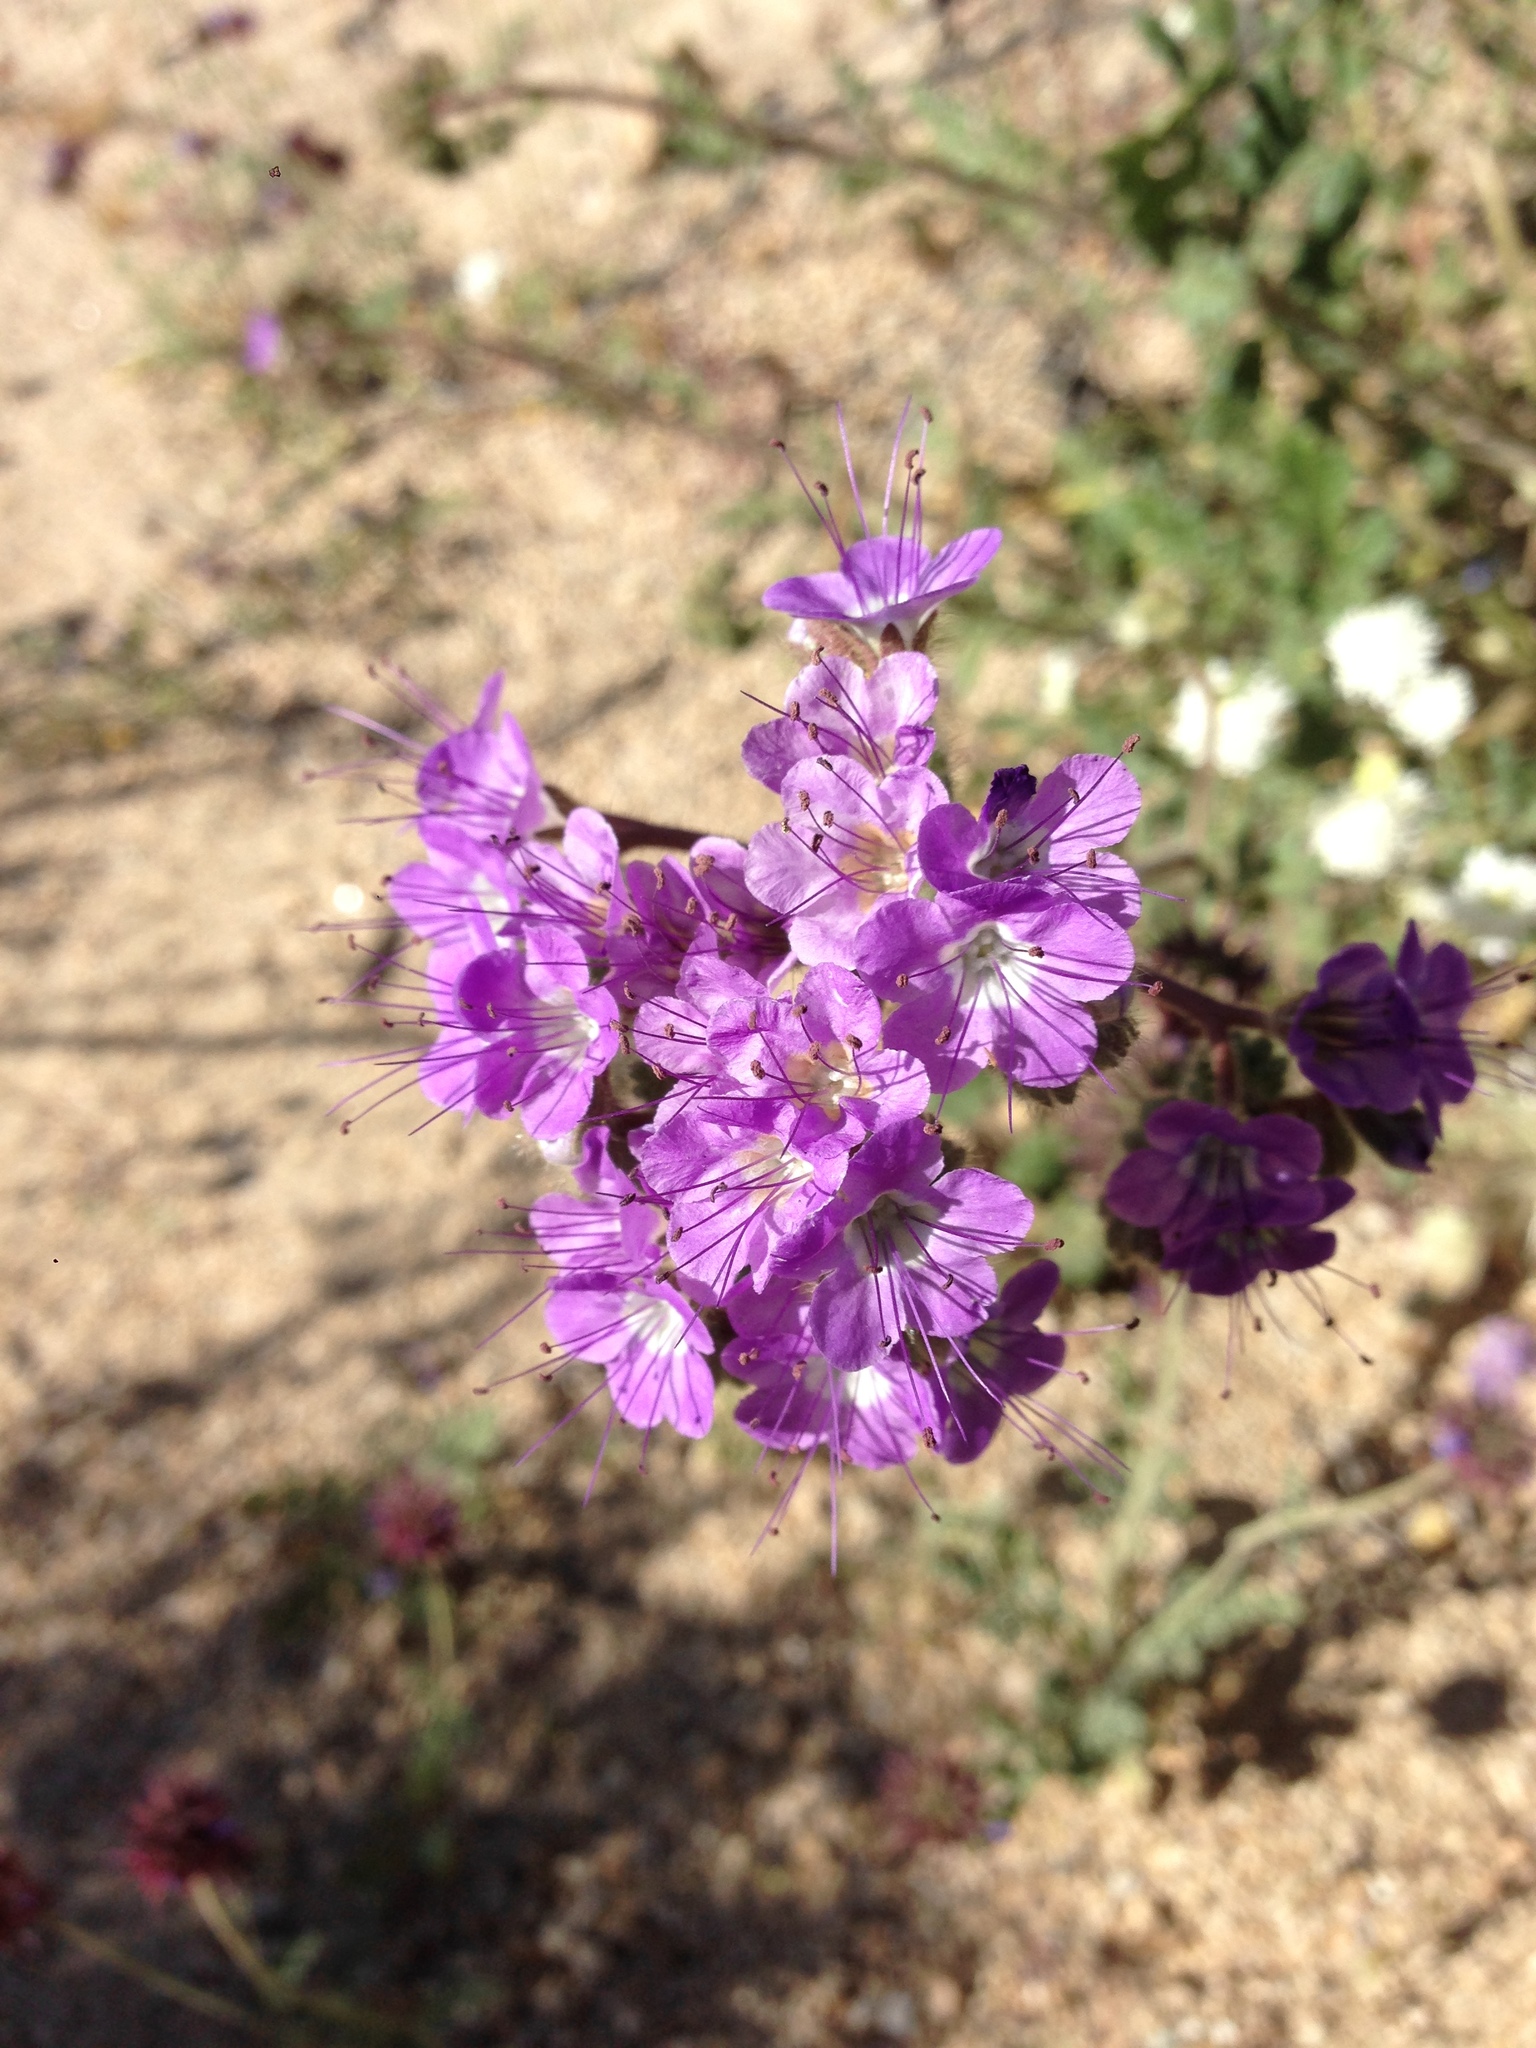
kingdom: Plantae
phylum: Tracheophyta
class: Magnoliopsida
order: Boraginales
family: Hydrophyllaceae
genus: Phacelia
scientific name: Phacelia crenulata
